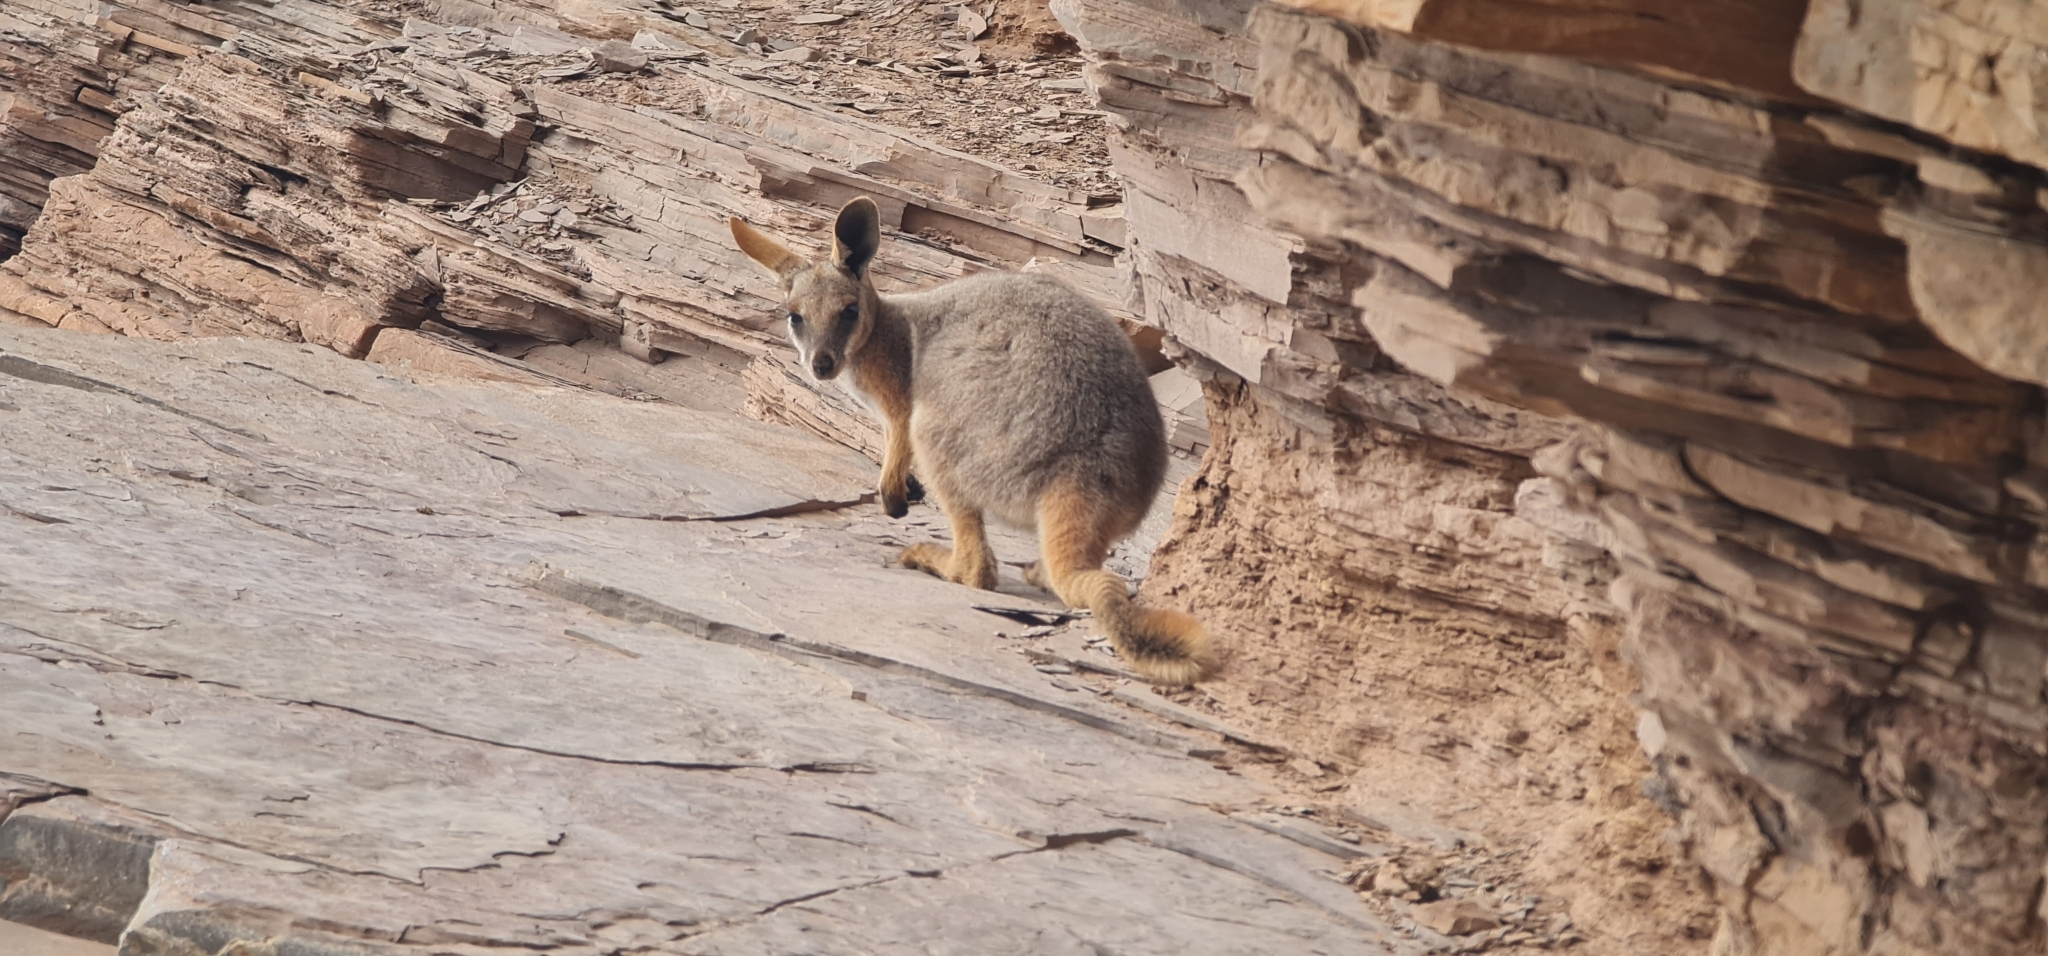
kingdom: Animalia
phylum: Chordata
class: Mammalia
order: Diprotodontia
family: Macropodidae
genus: Petrogale
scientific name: Petrogale xanthopus
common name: Yellow-footed rock-wallaby
